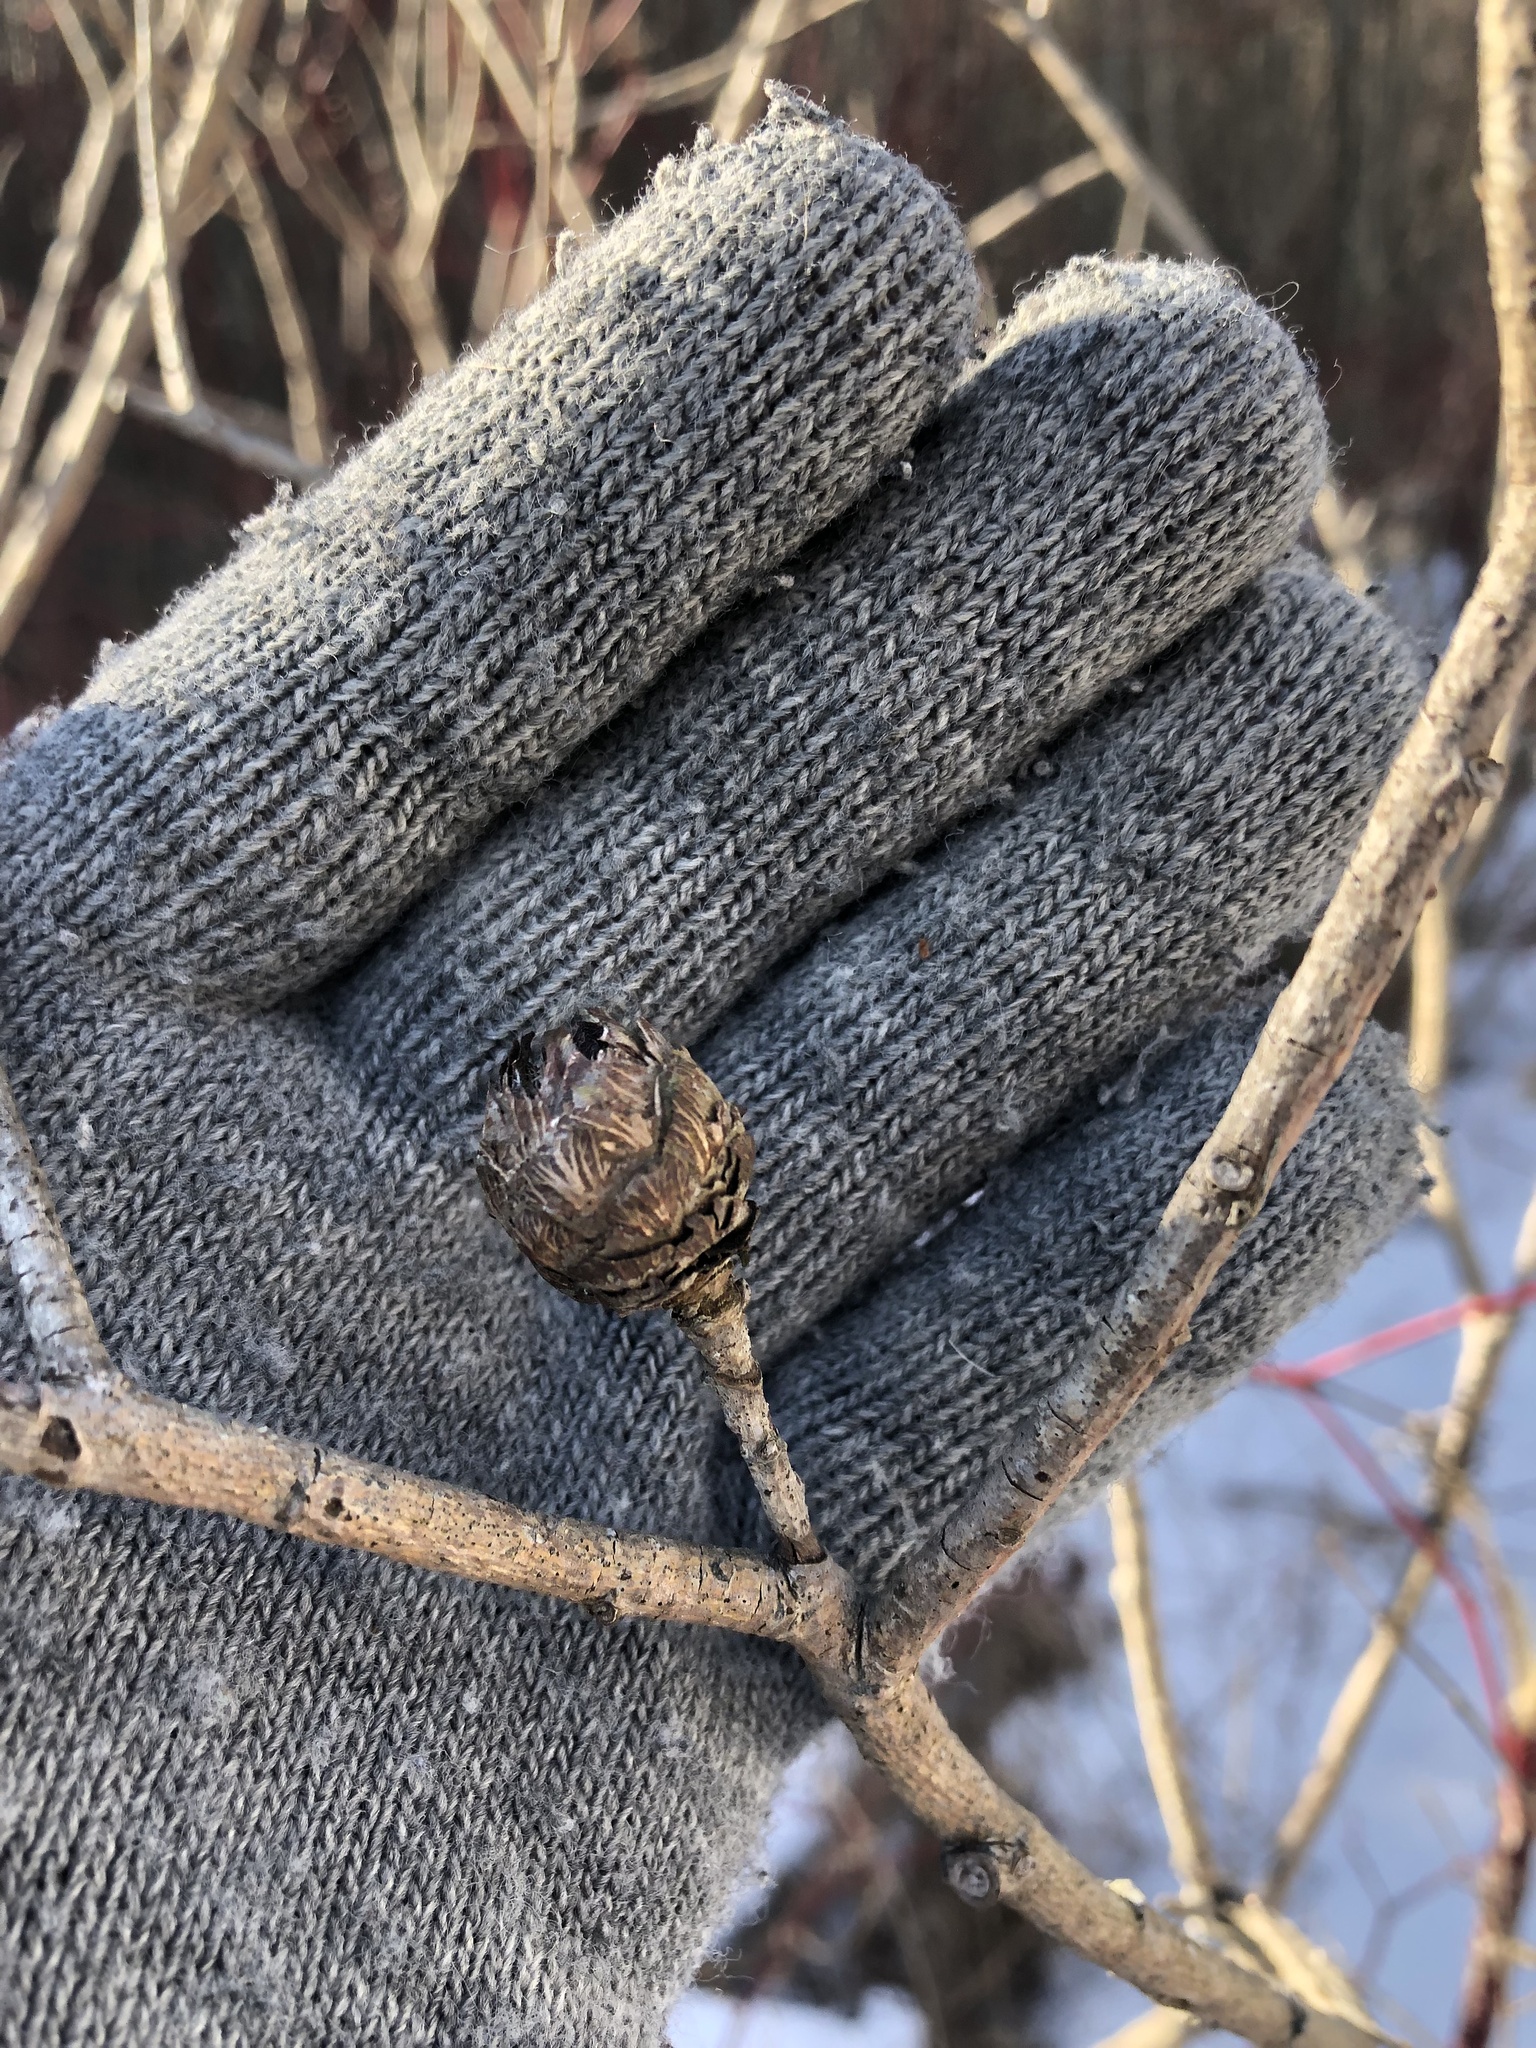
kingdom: Animalia
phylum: Arthropoda
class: Insecta
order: Diptera
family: Cecidomyiidae
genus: Rabdophaga
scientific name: Rabdophaga strobiloides
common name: Willow pinecone gall midge
